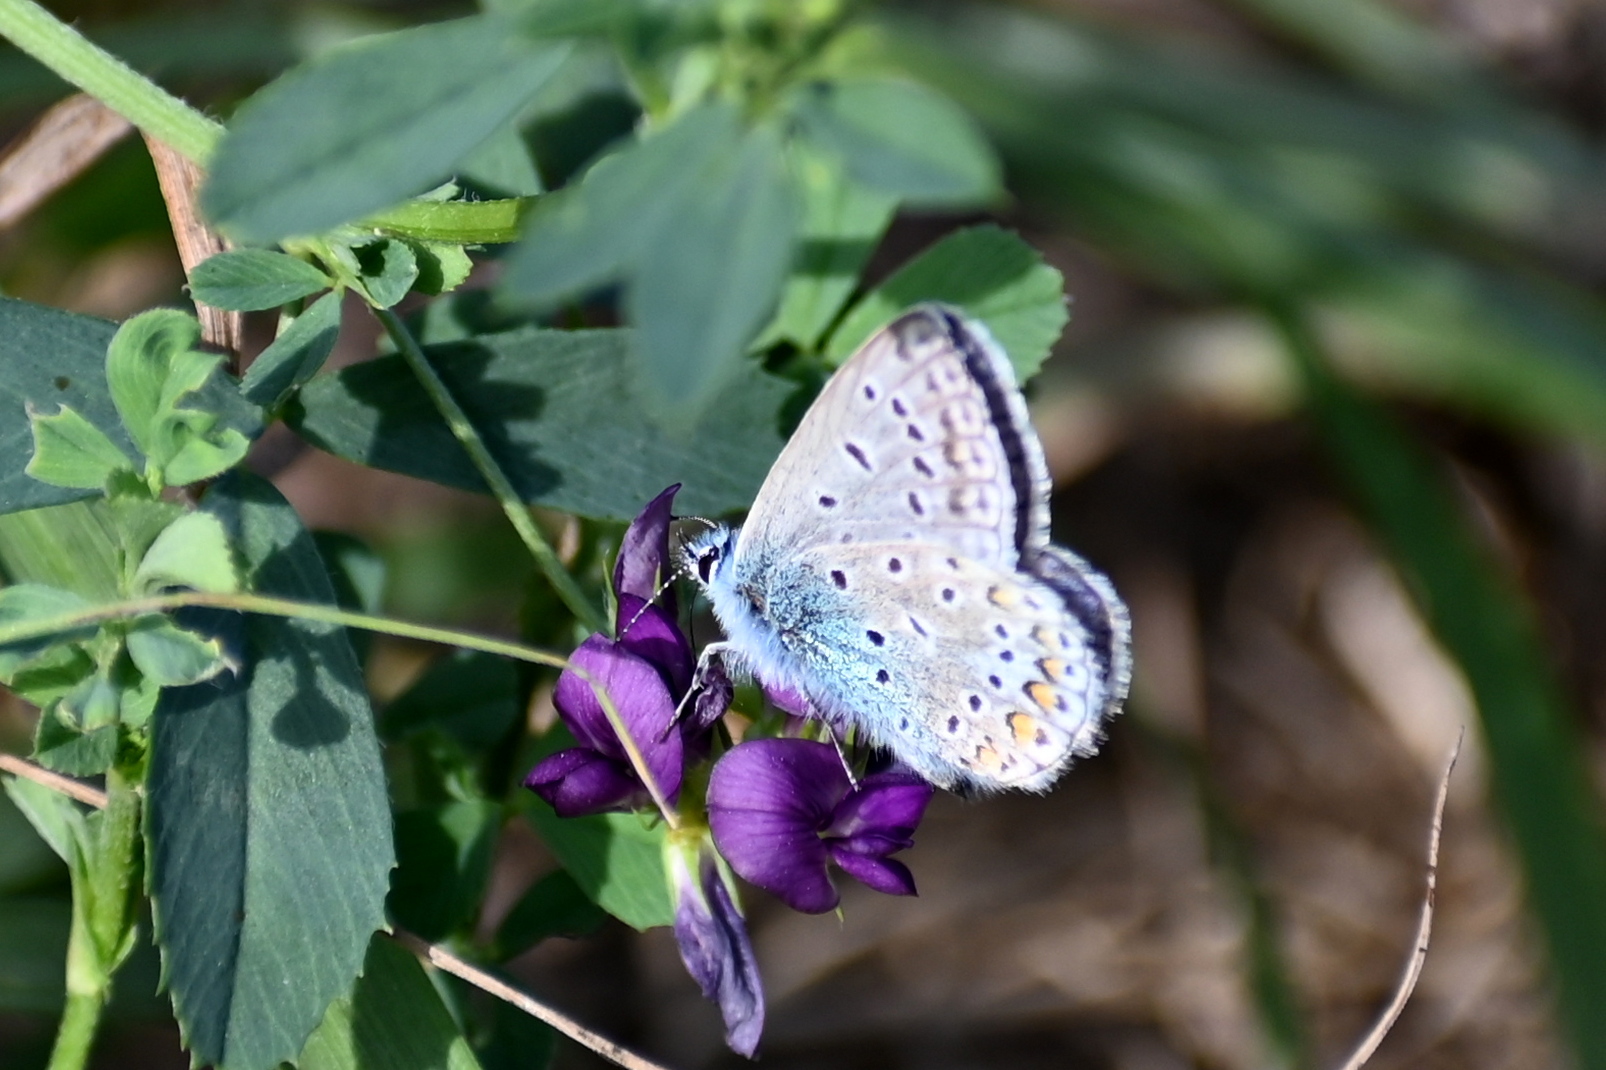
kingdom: Animalia
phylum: Arthropoda
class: Insecta
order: Lepidoptera
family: Lycaenidae
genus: Polyommatus
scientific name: Polyommatus icarus
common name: Common blue
